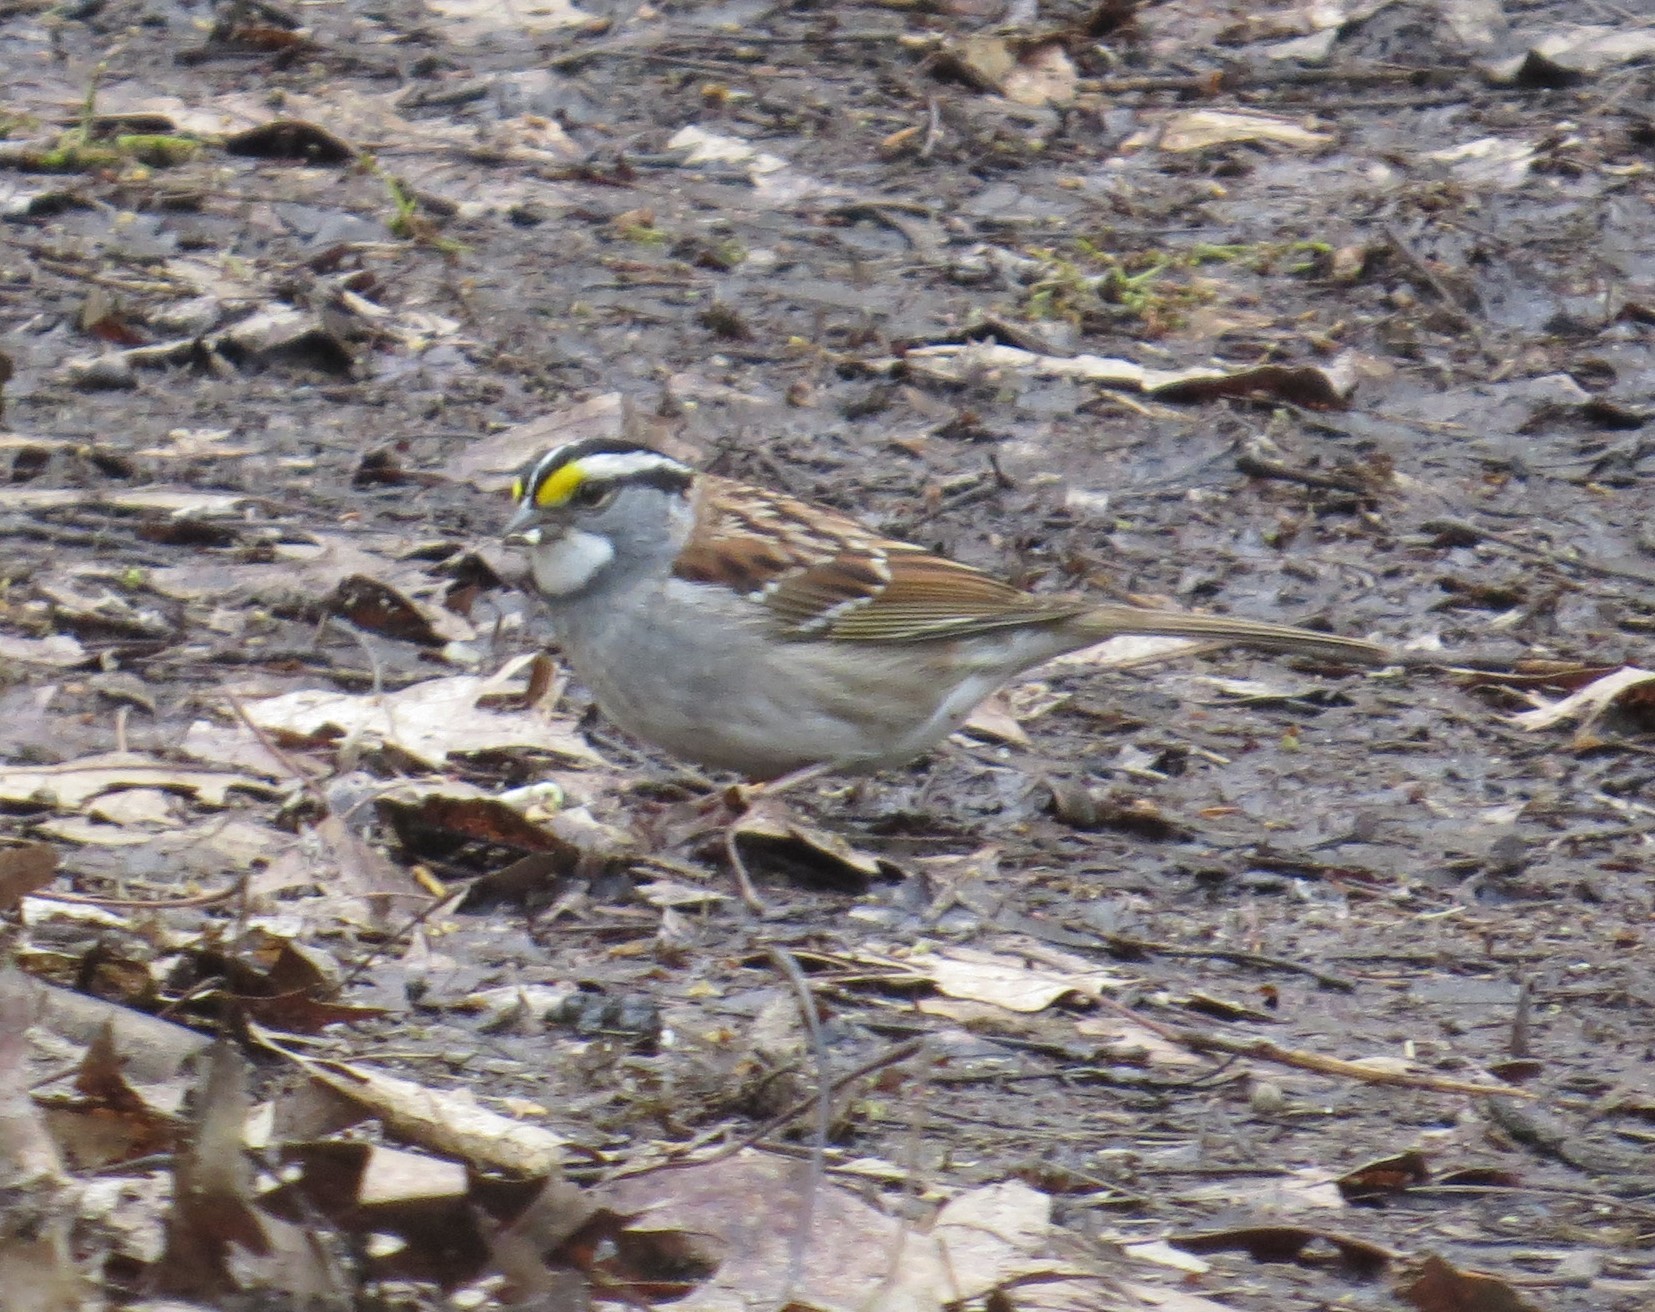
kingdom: Animalia
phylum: Chordata
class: Aves
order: Passeriformes
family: Passerellidae
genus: Zonotrichia
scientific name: Zonotrichia albicollis
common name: White-throated sparrow
